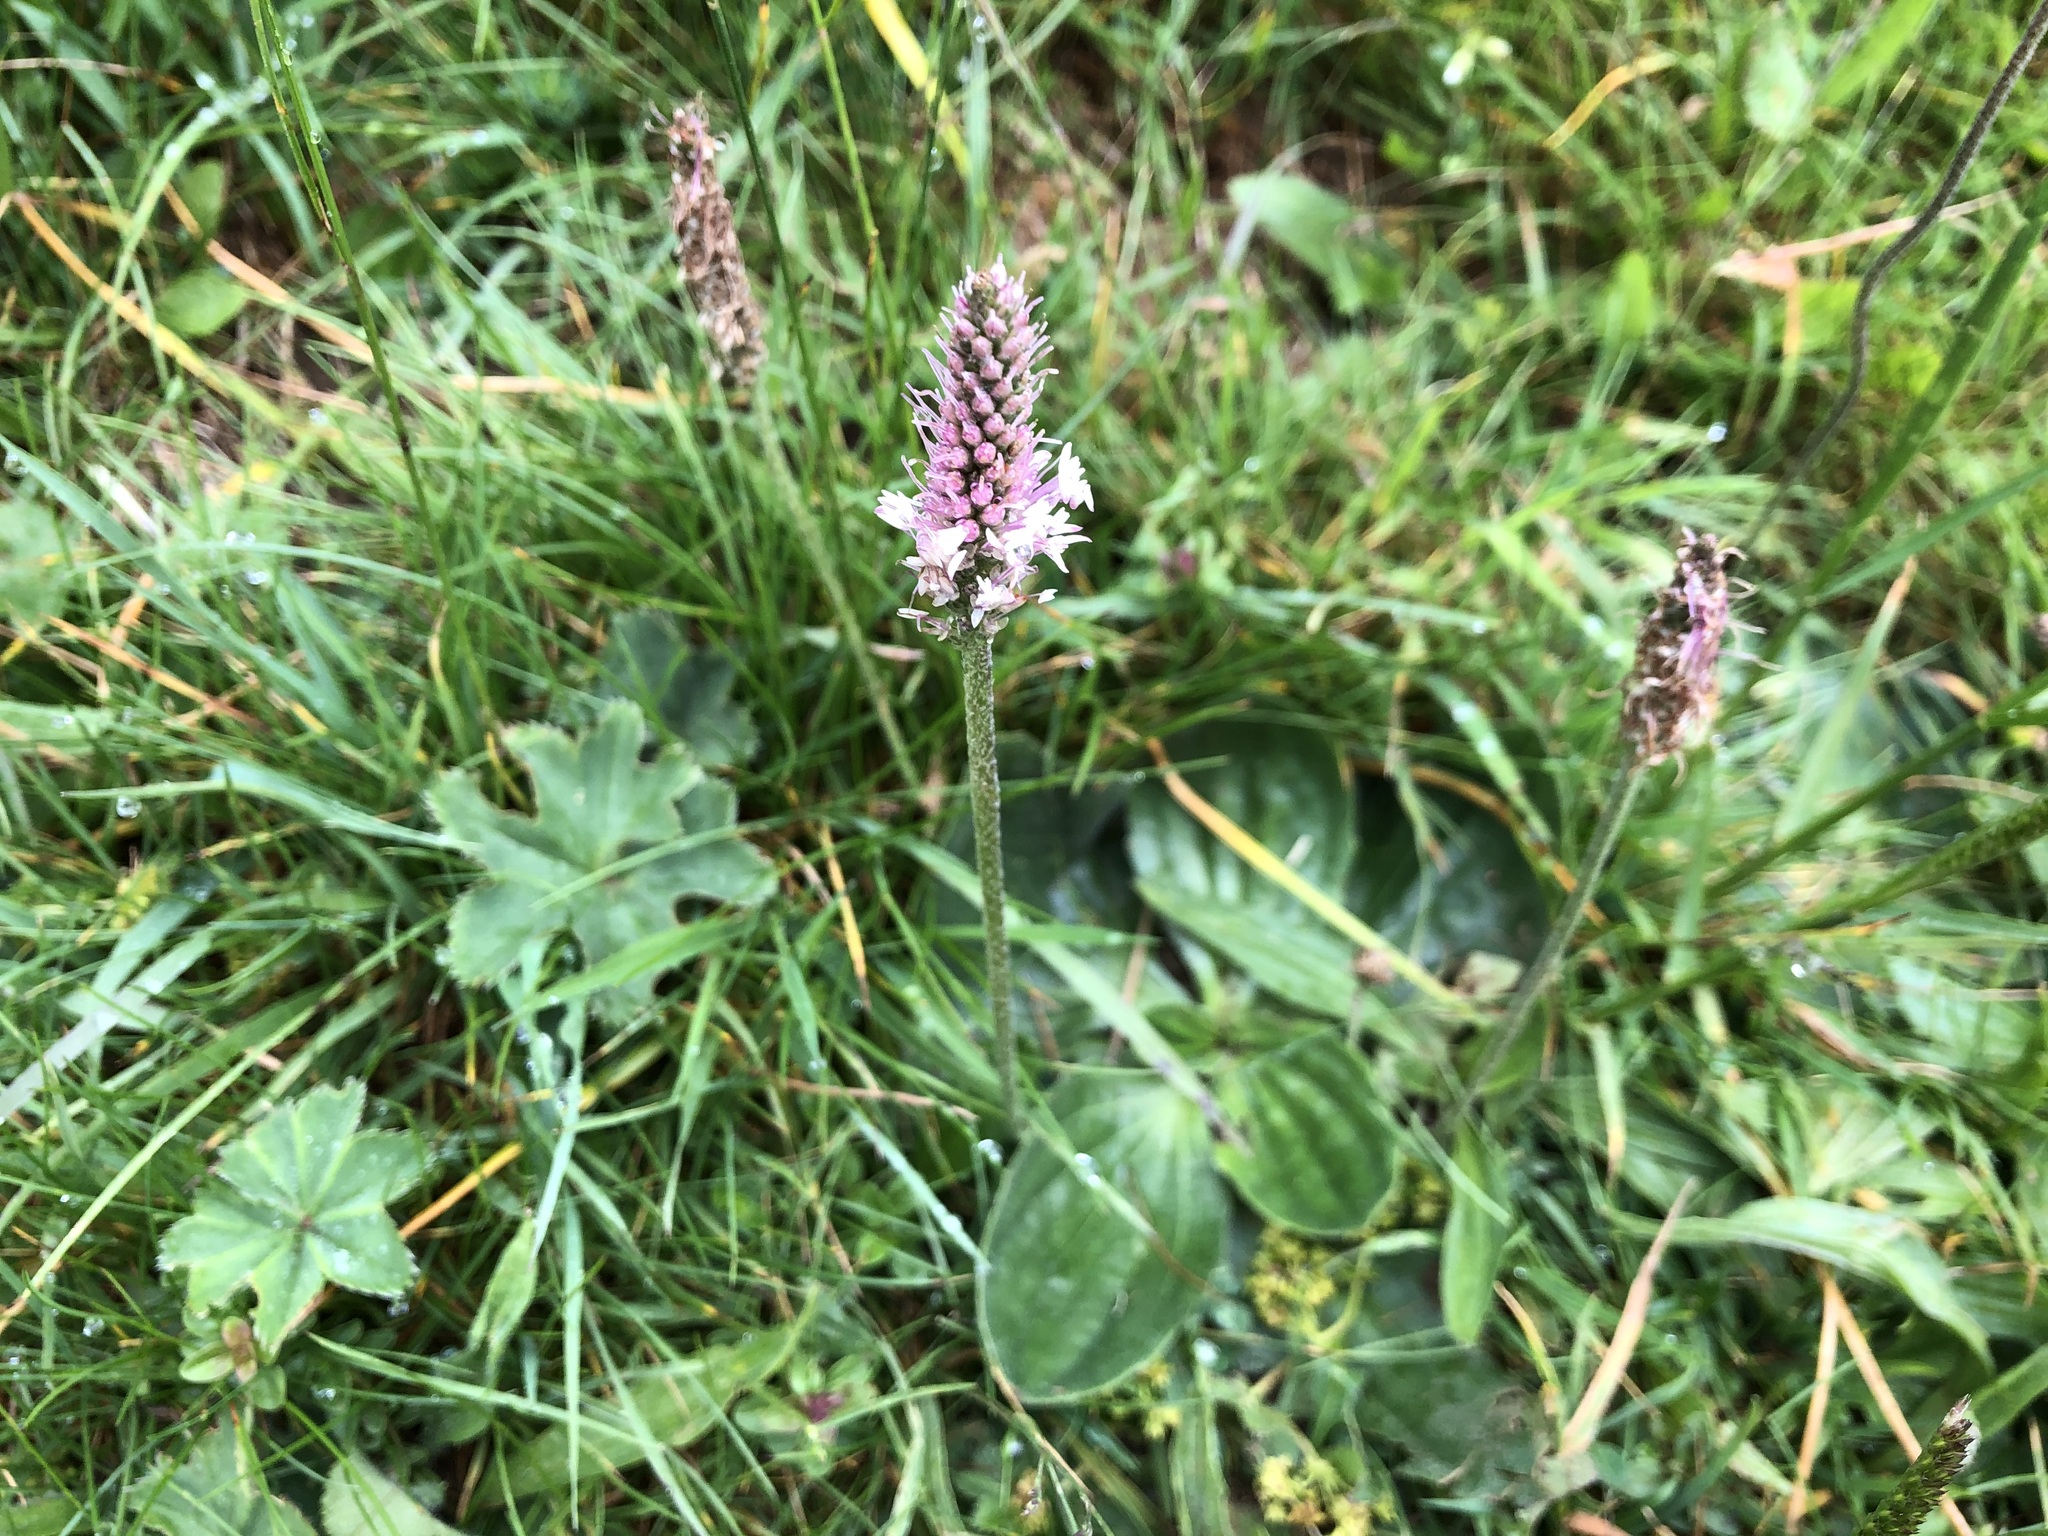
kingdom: Plantae
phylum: Tracheophyta
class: Magnoliopsida
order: Lamiales
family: Plantaginaceae
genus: Plantago
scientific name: Plantago media
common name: Hoary plantain
